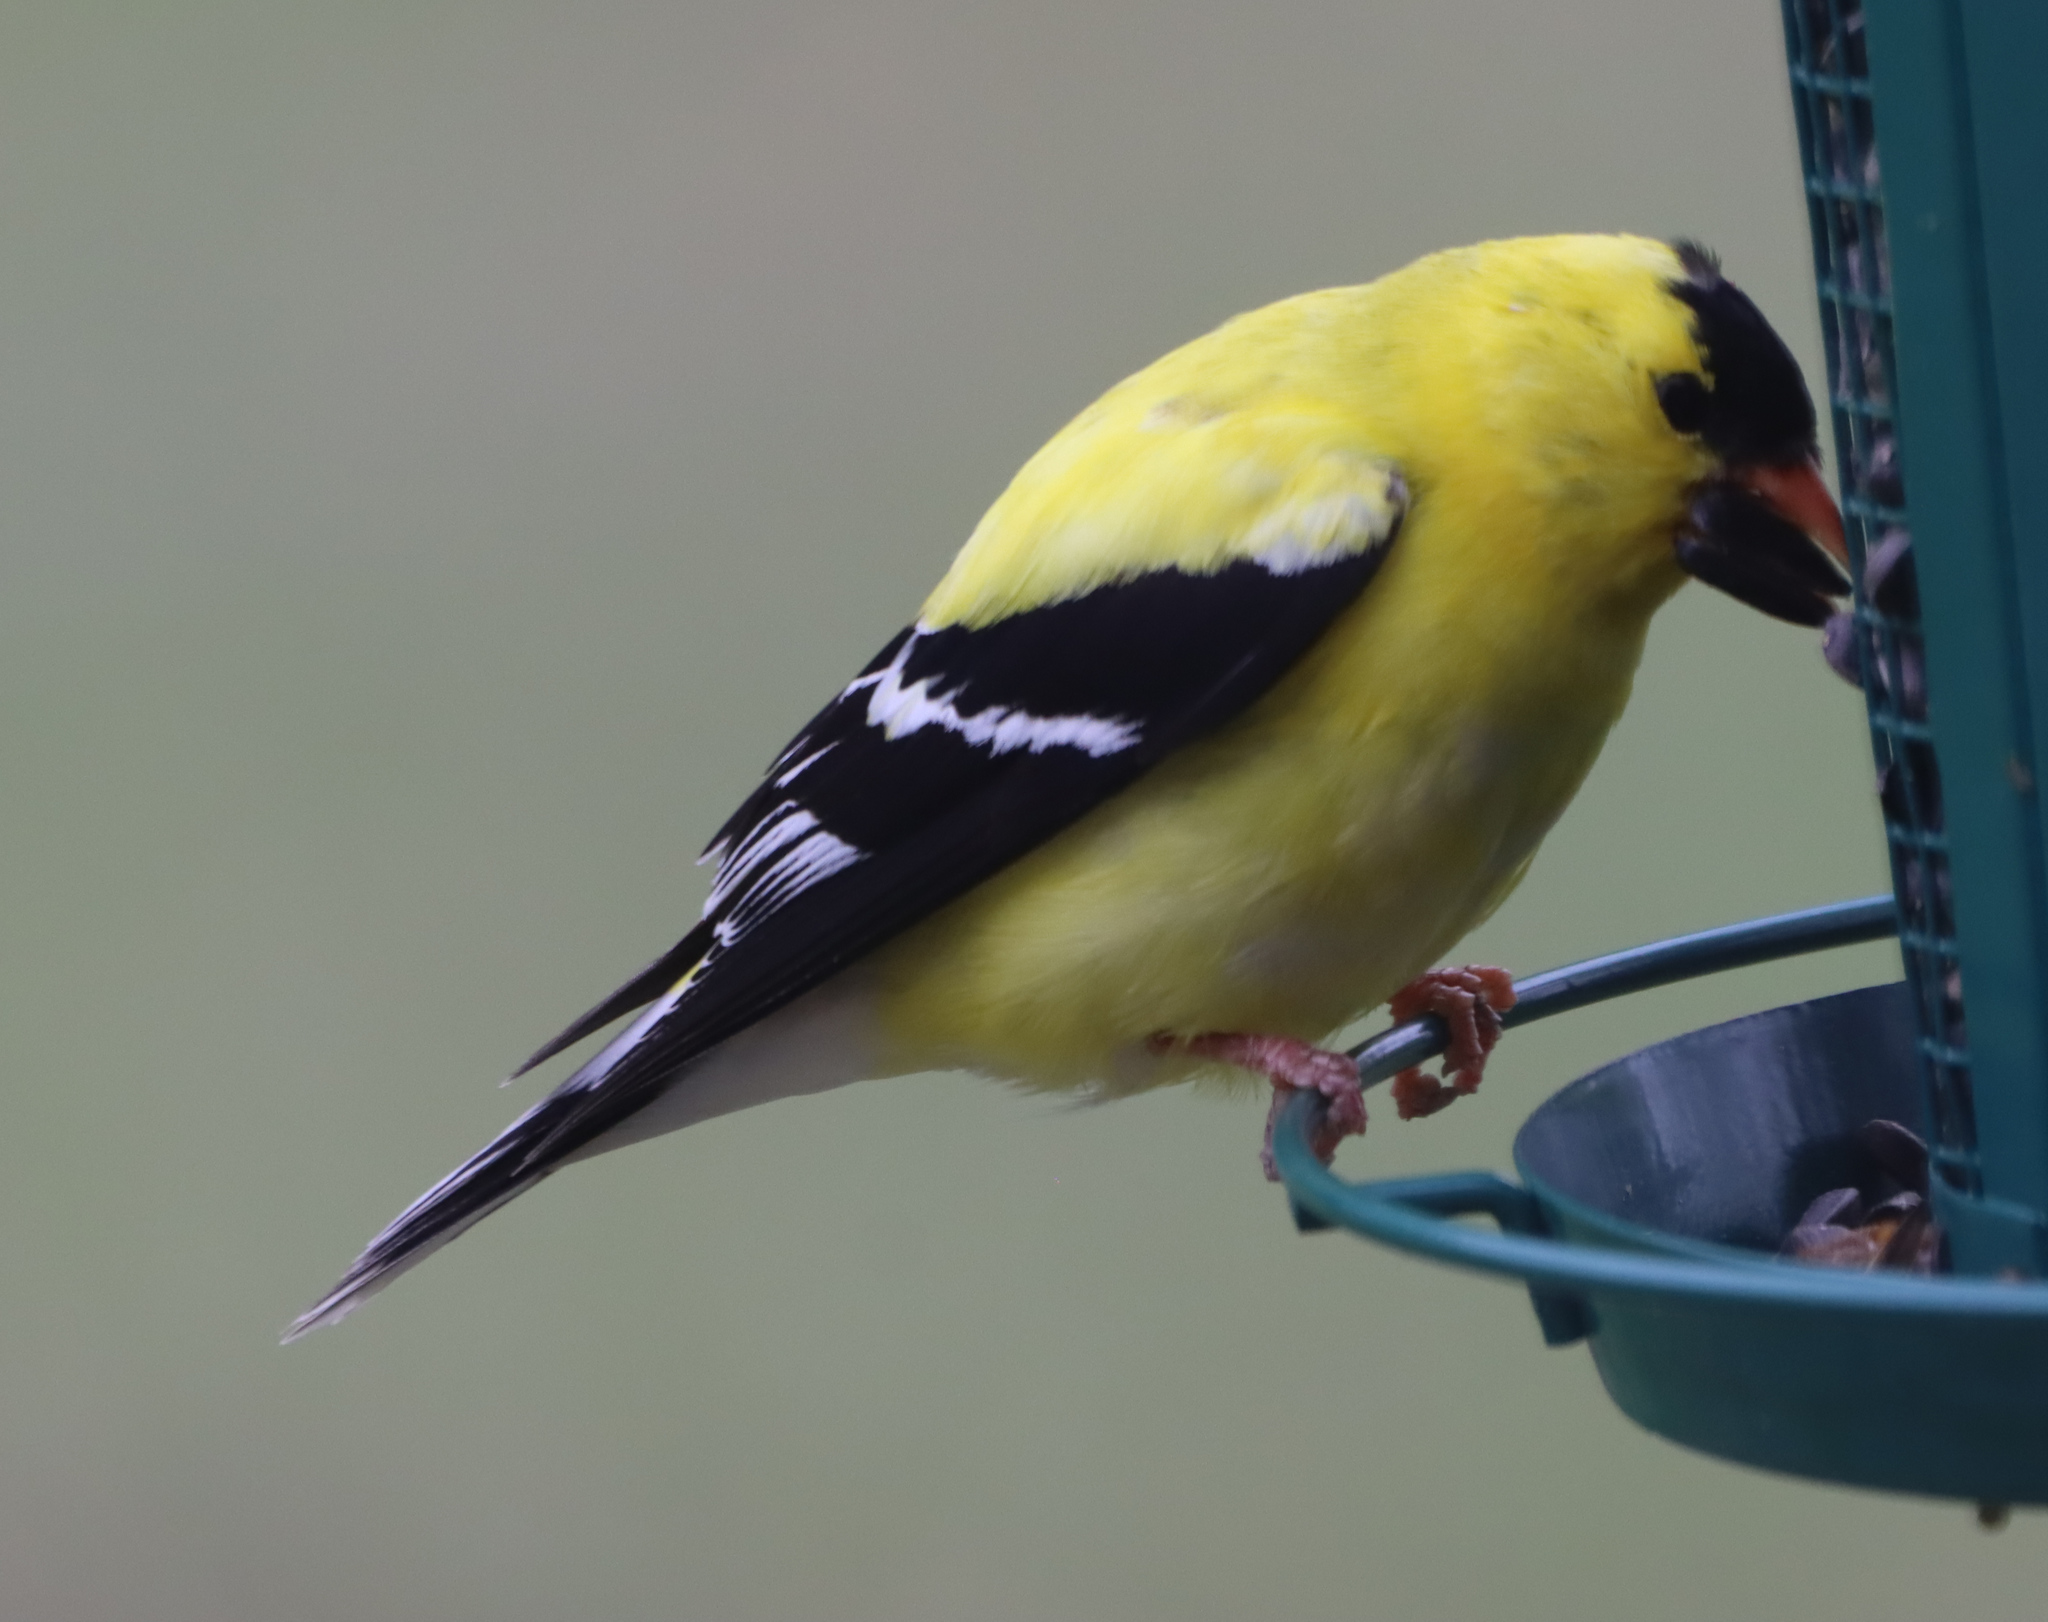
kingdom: Animalia
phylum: Chordata
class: Aves
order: Passeriformes
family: Fringillidae
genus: Spinus
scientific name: Spinus tristis
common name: American goldfinch
